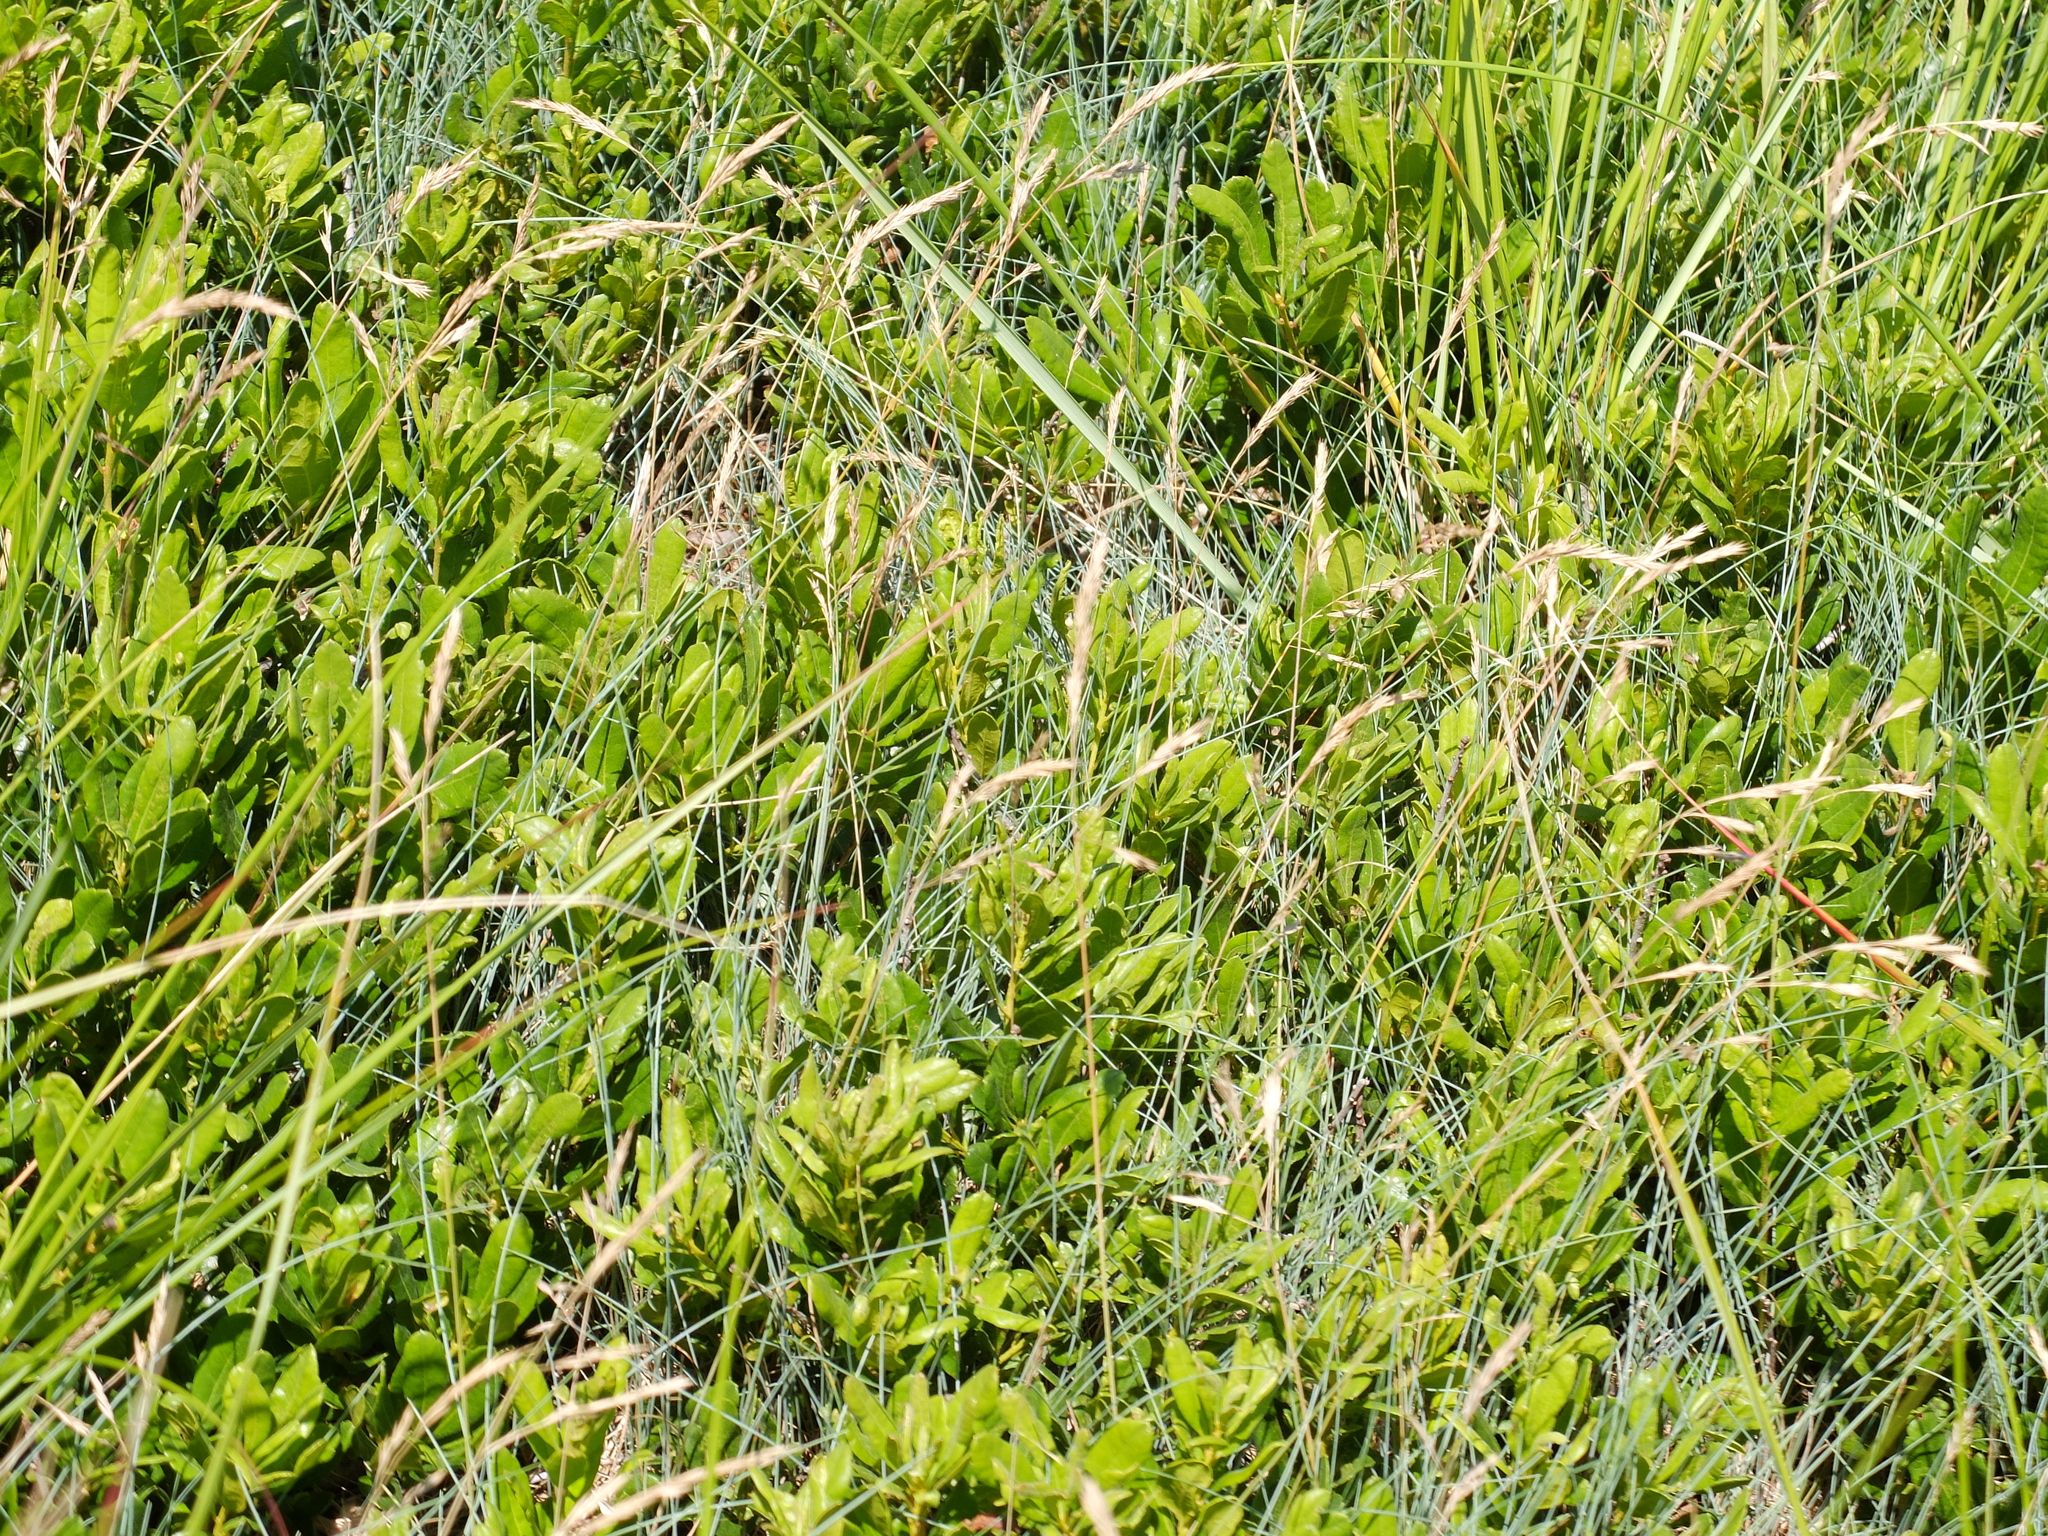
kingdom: Plantae
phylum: Tracheophyta
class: Liliopsida
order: Poales
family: Poaceae
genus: Festuca
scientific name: Festuca rubra
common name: Red fescue
